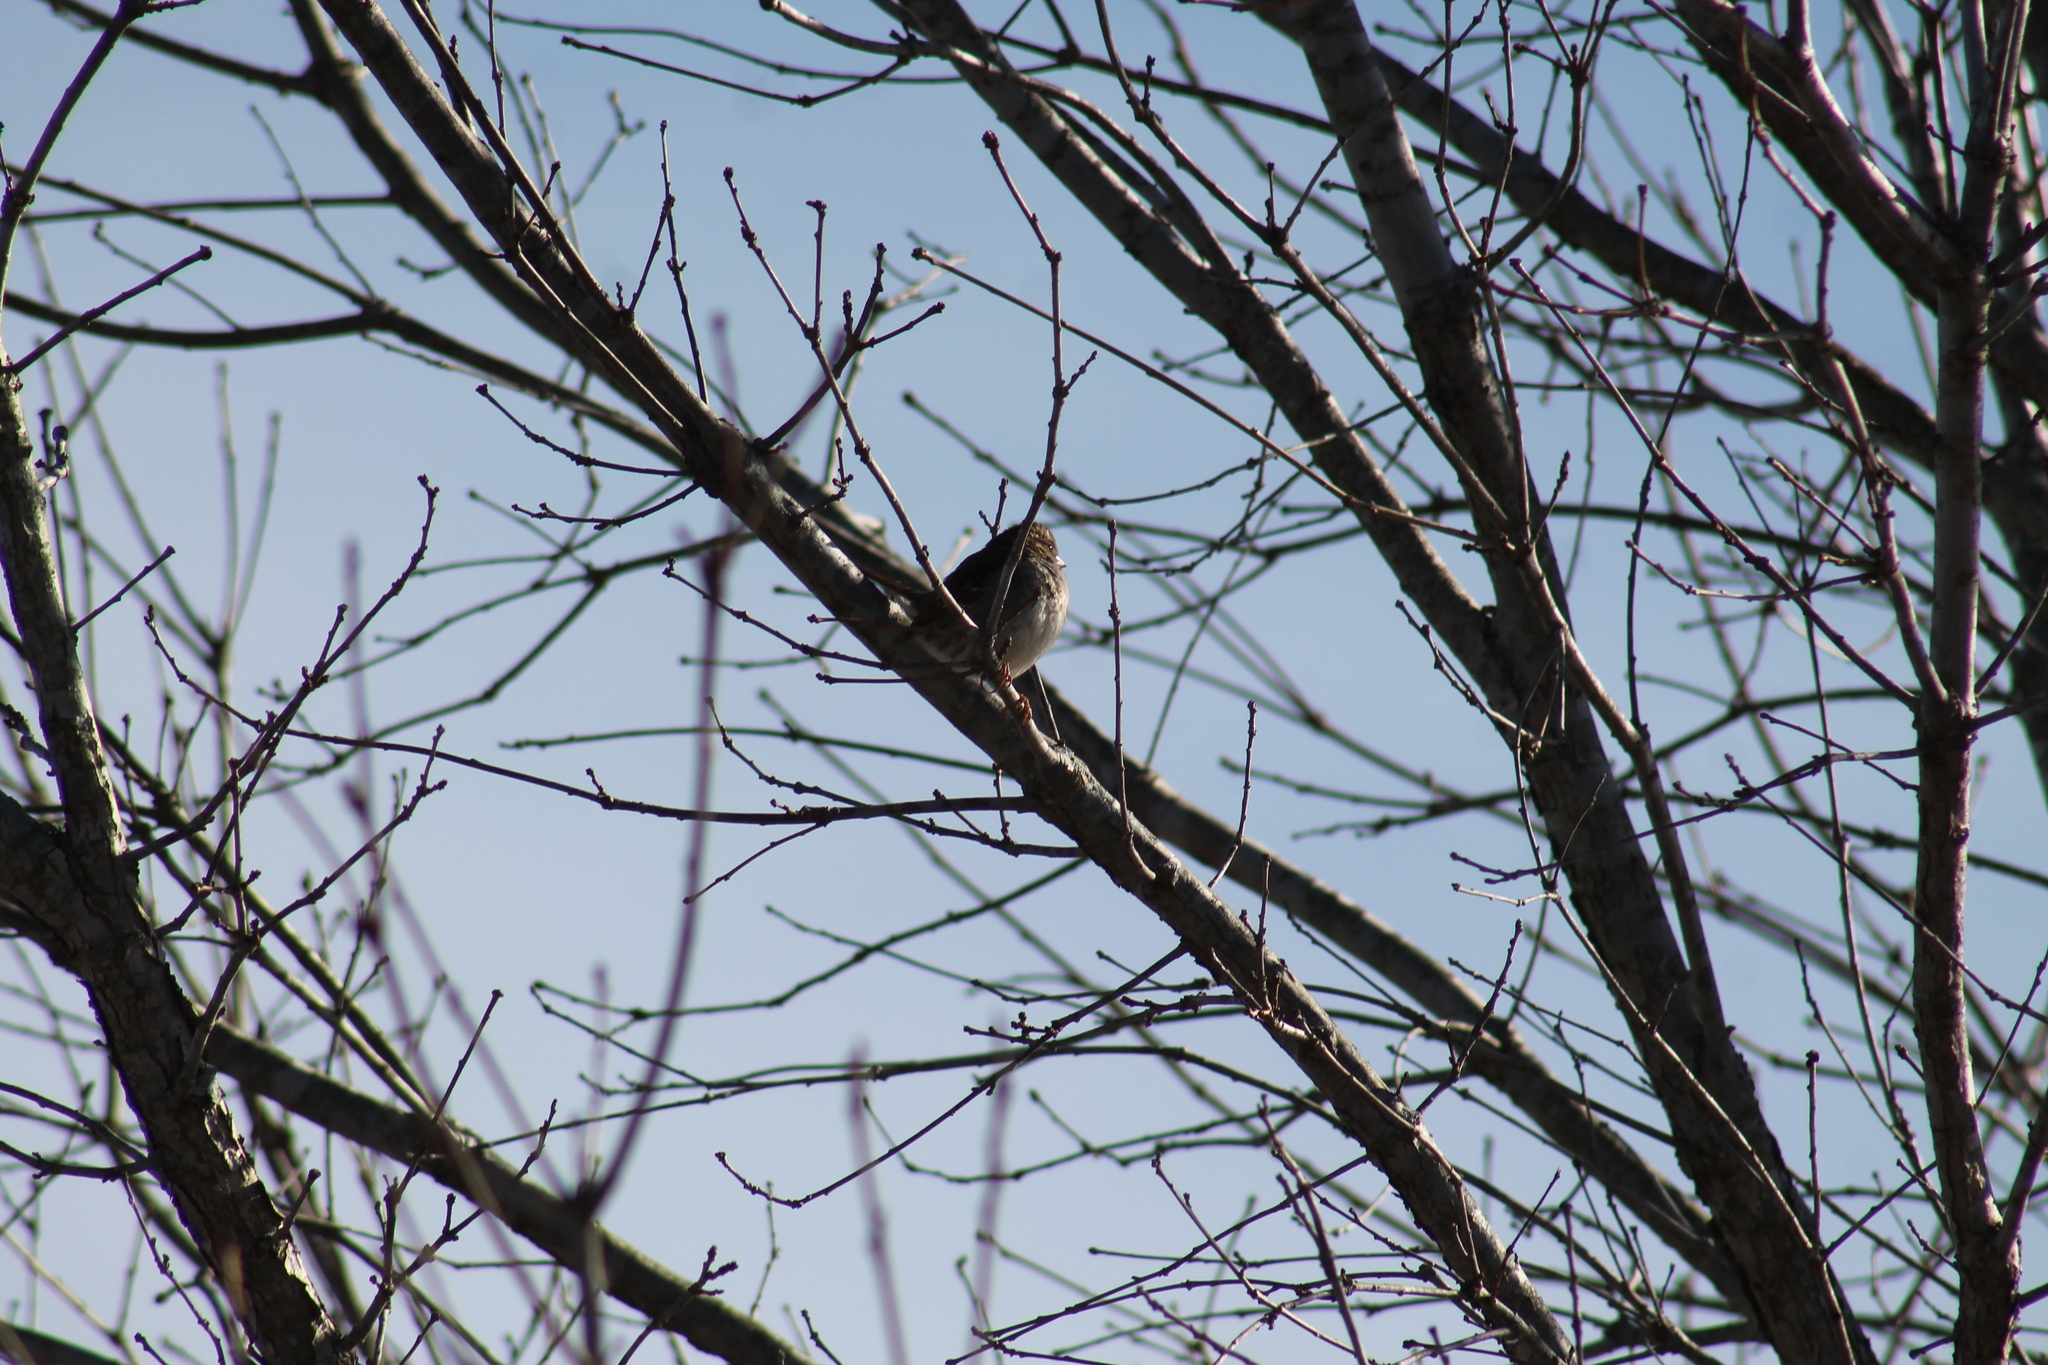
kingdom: Animalia
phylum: Chordata
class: Aves
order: Passeriformes
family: Passerellidae
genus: Junco
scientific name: Junco hyemalis
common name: Dark-eyed junco
